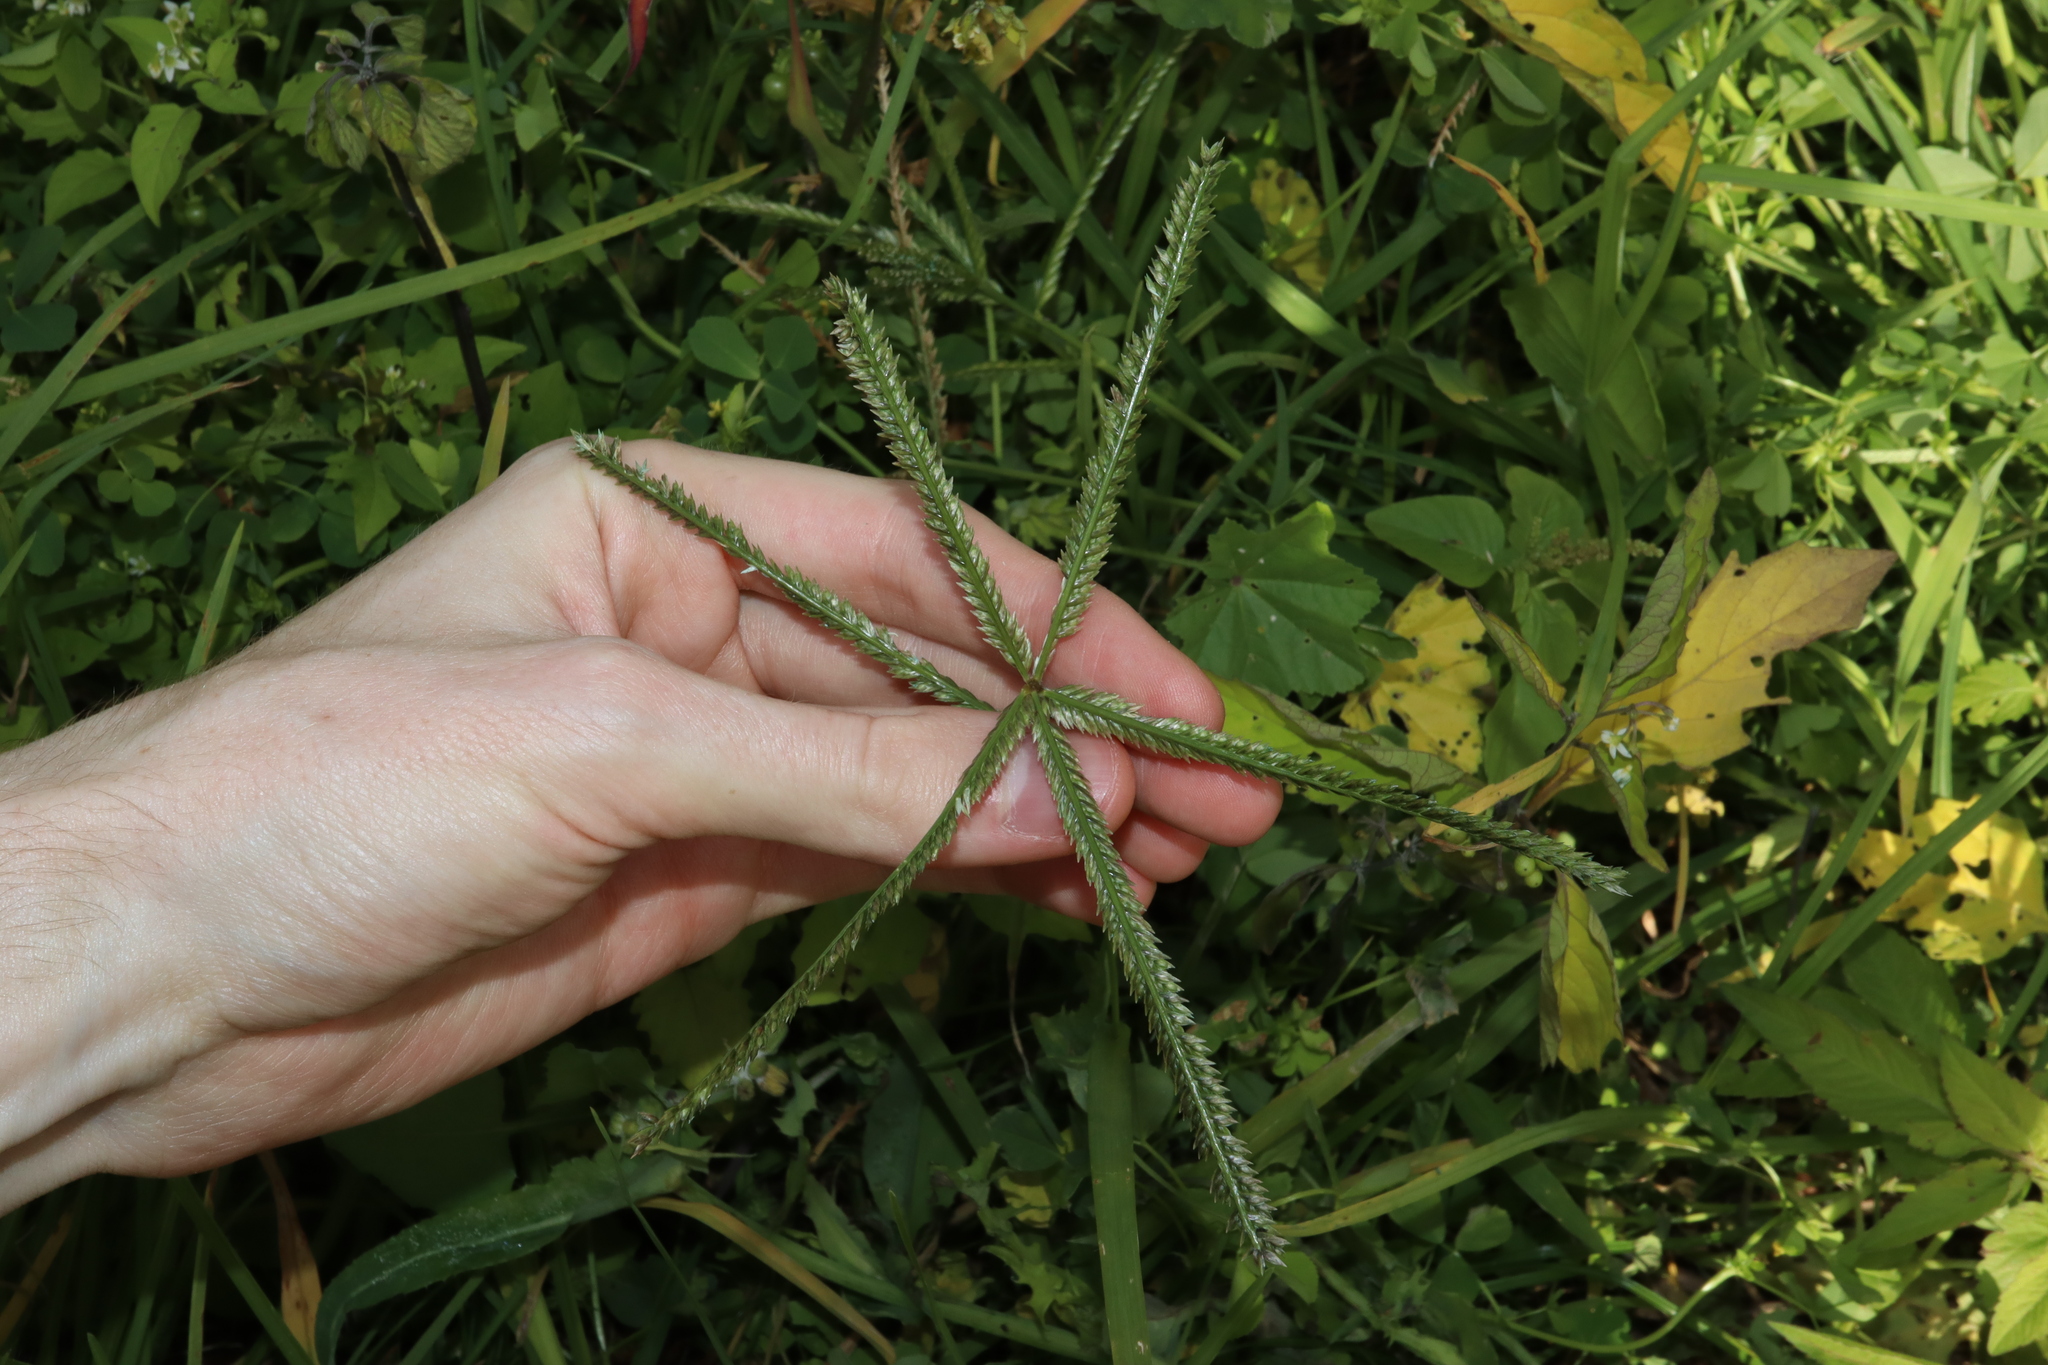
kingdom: Plantae
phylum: Tracheophyta
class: Liliopsida
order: Poales
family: Poaceae
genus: Eleusine
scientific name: Eleusine indica
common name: Yard-grass
